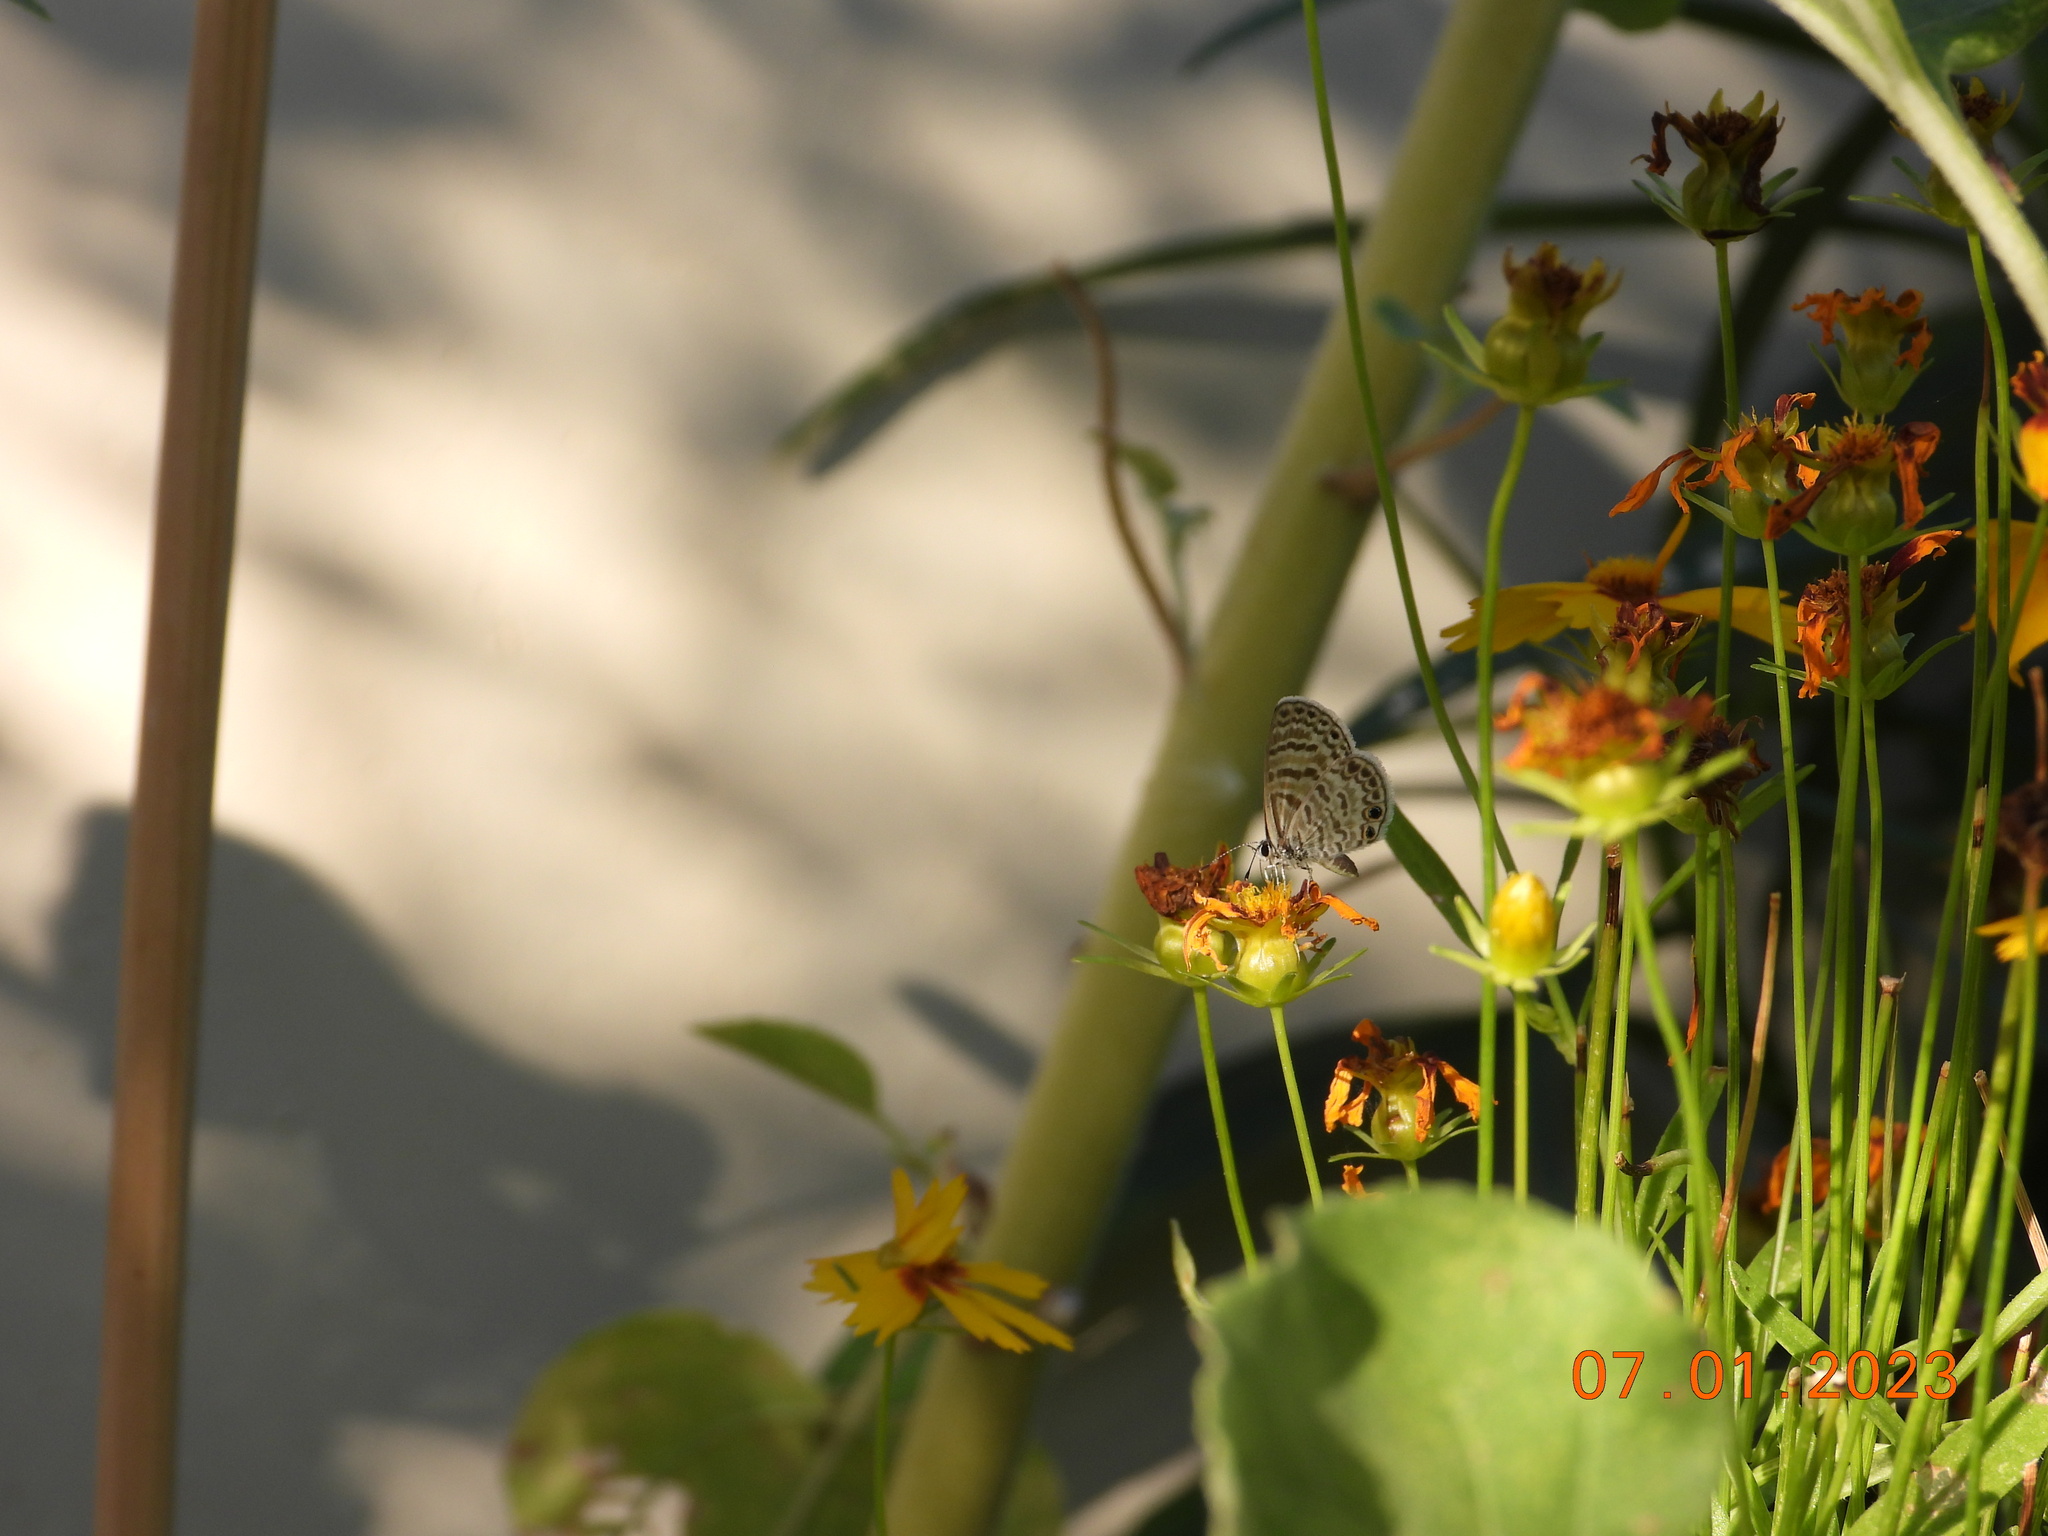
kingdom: Animalia
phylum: Arthropoda
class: Insecta
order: Lepidoptera
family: Lycaenidae
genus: Leptotes
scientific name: Leptotes marina
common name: Marine blue
